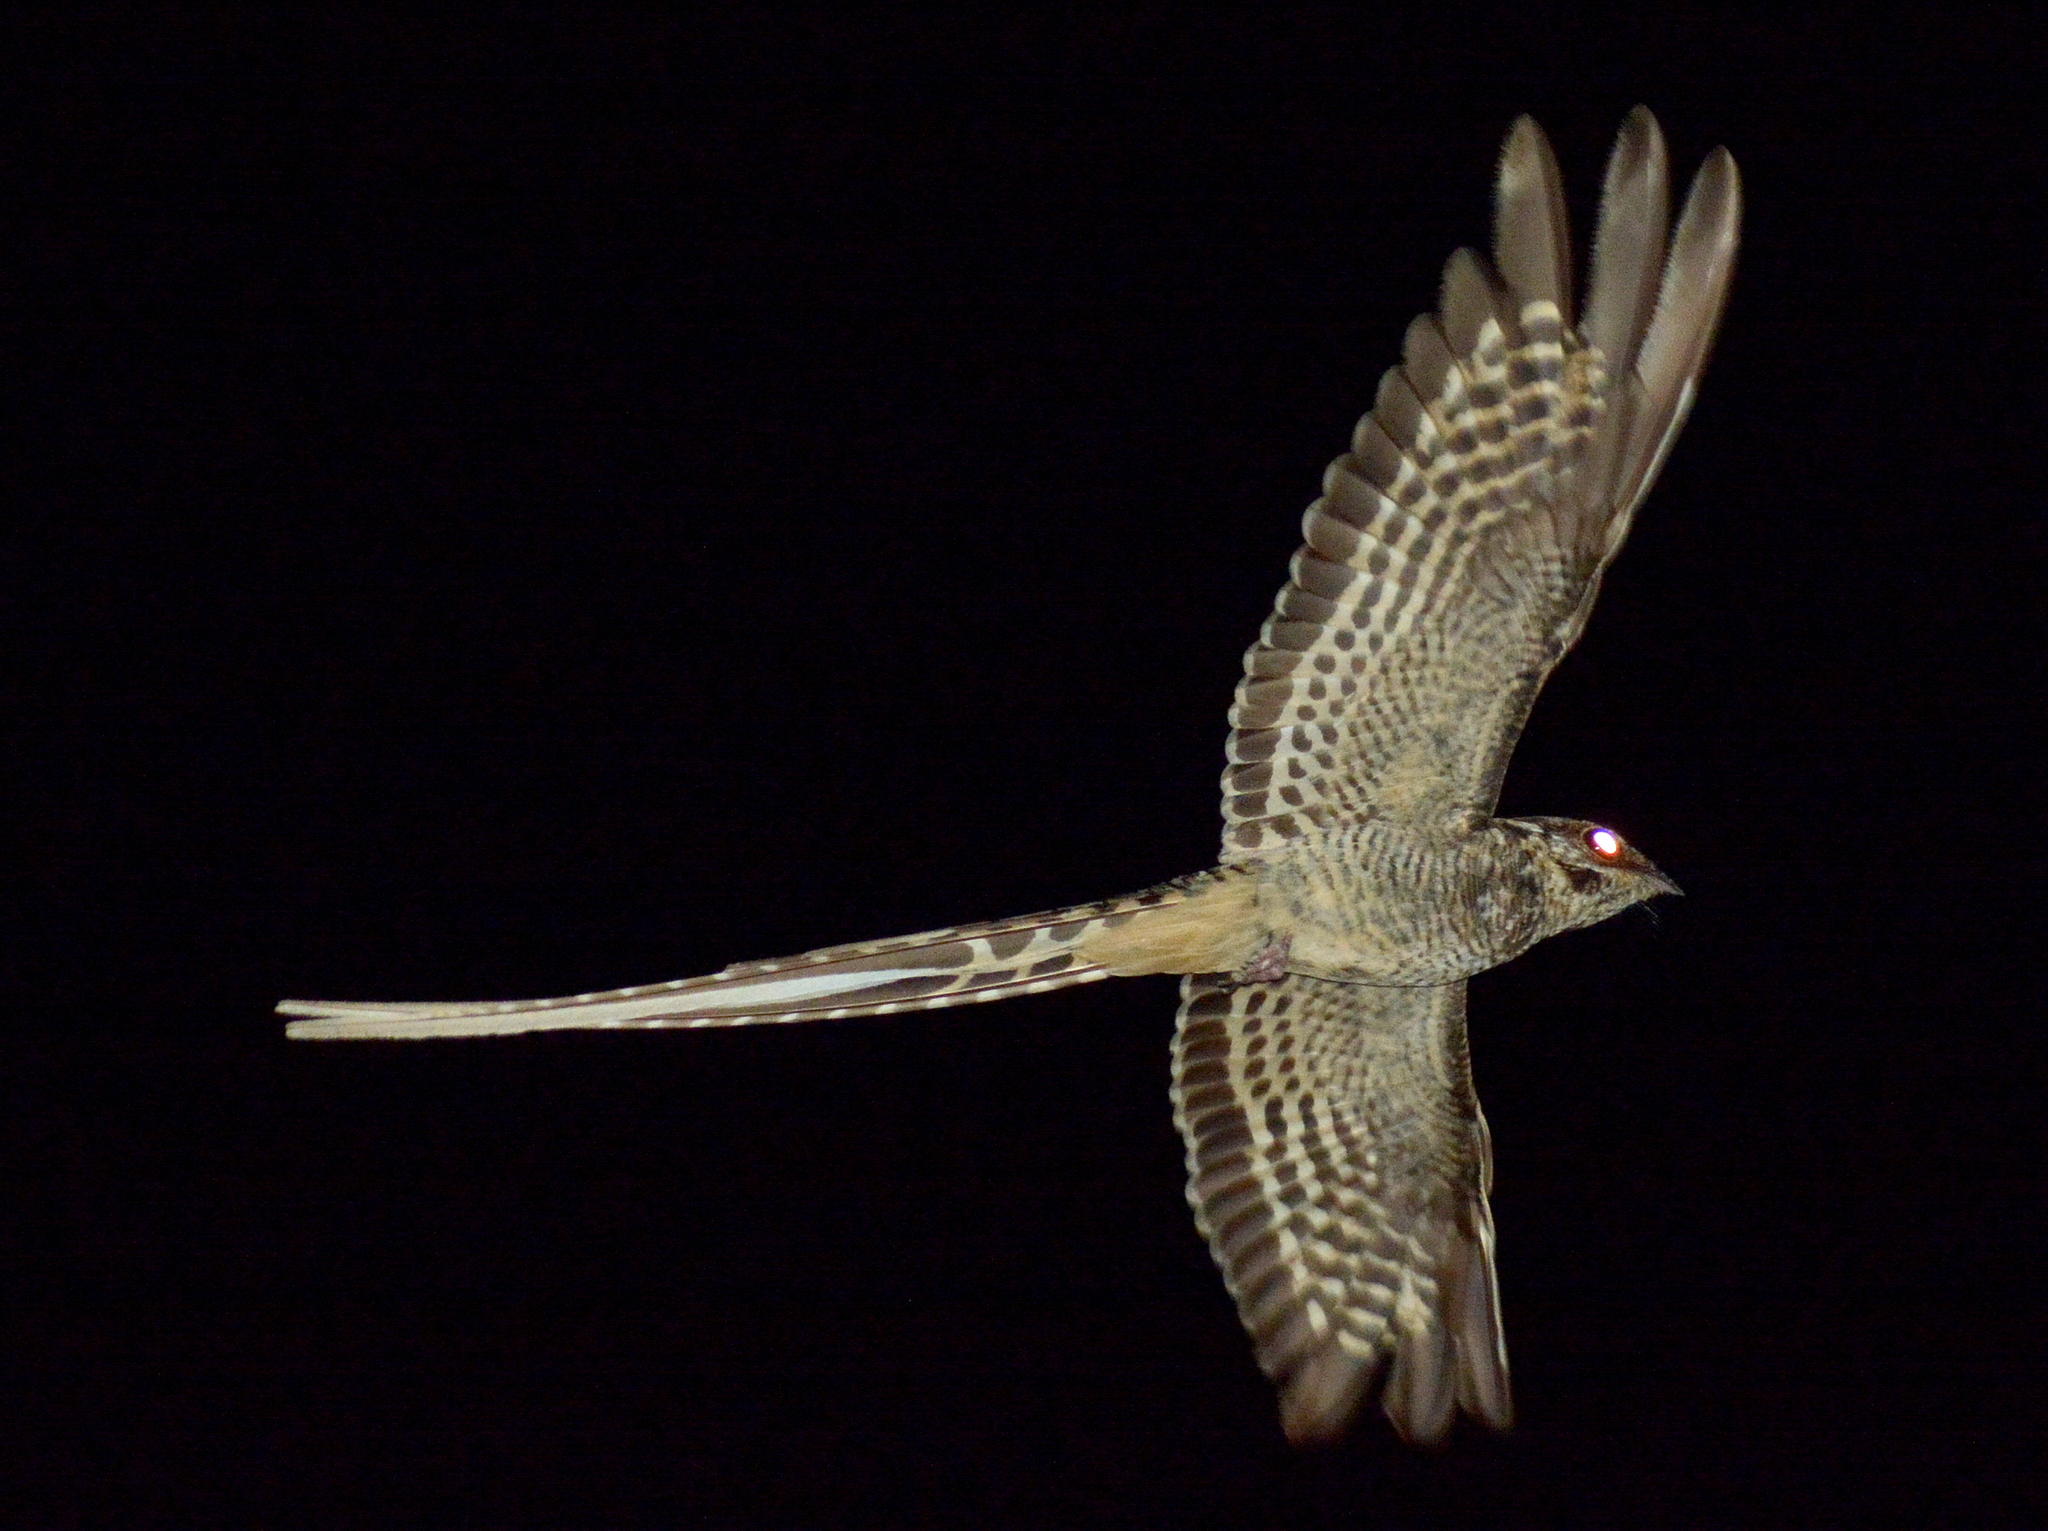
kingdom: Animalia
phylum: Chordata
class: Aves
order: Caprimulgiformes
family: Caprimulgidae
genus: Hydropsalis
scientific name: Hydropsalis torquata
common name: Scissor-tailed nightjar
